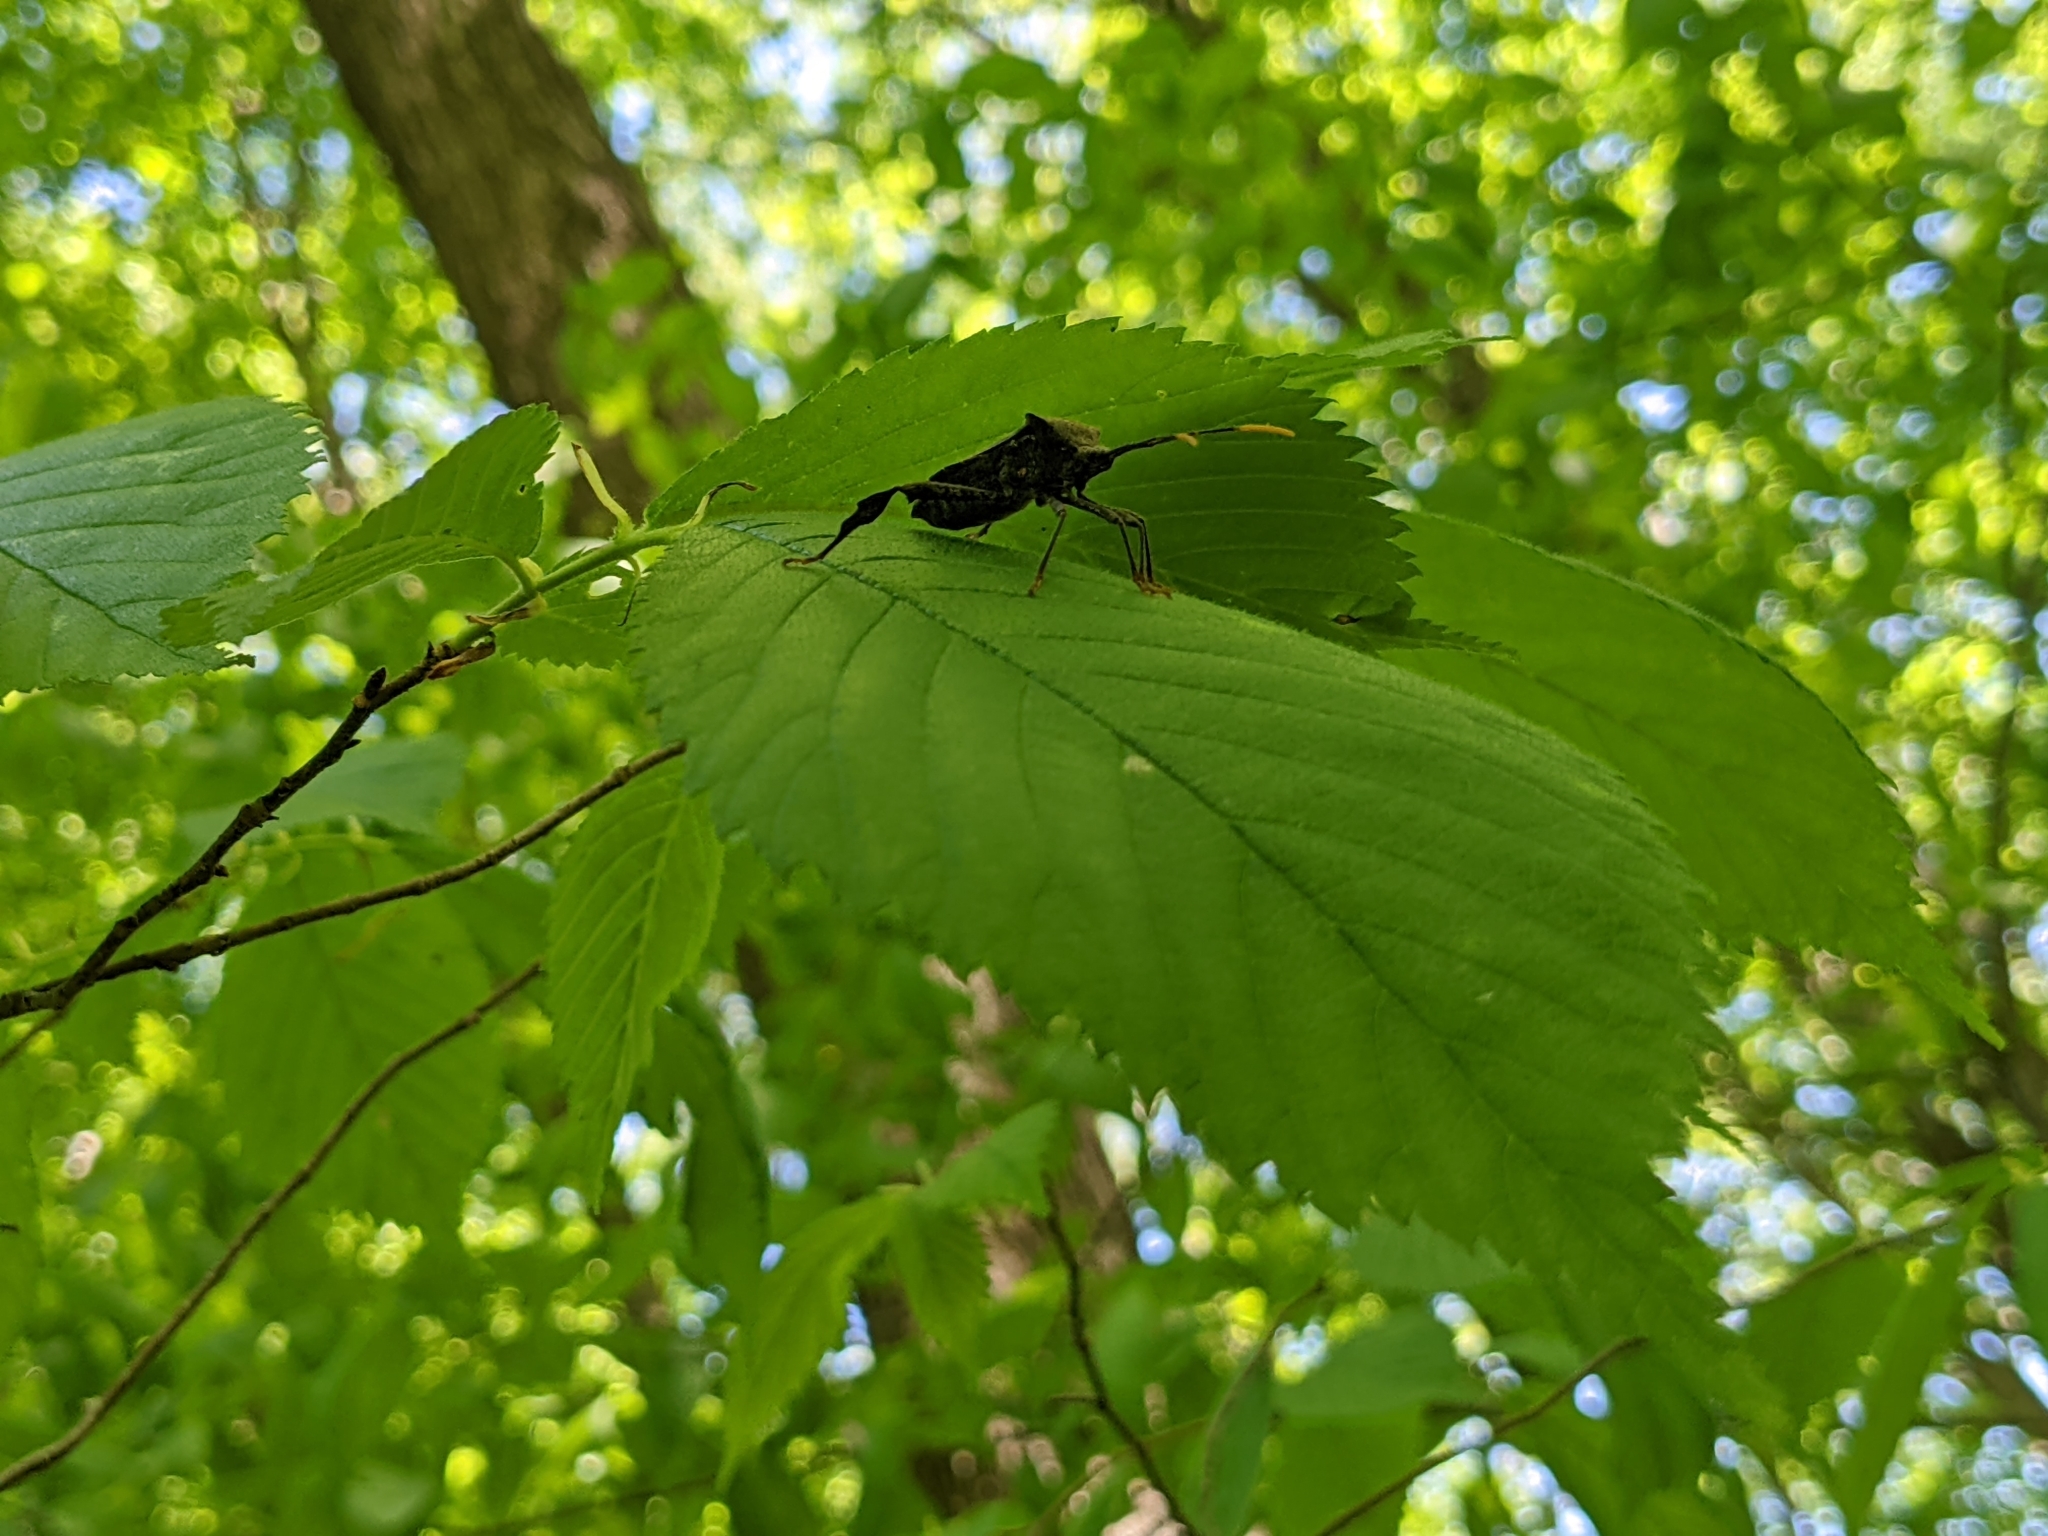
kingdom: Animalia
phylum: Arthropoda
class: Insecta
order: Hemiptera
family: Coreidae
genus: Acanthocephala
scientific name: Acanthocephala terminalis
